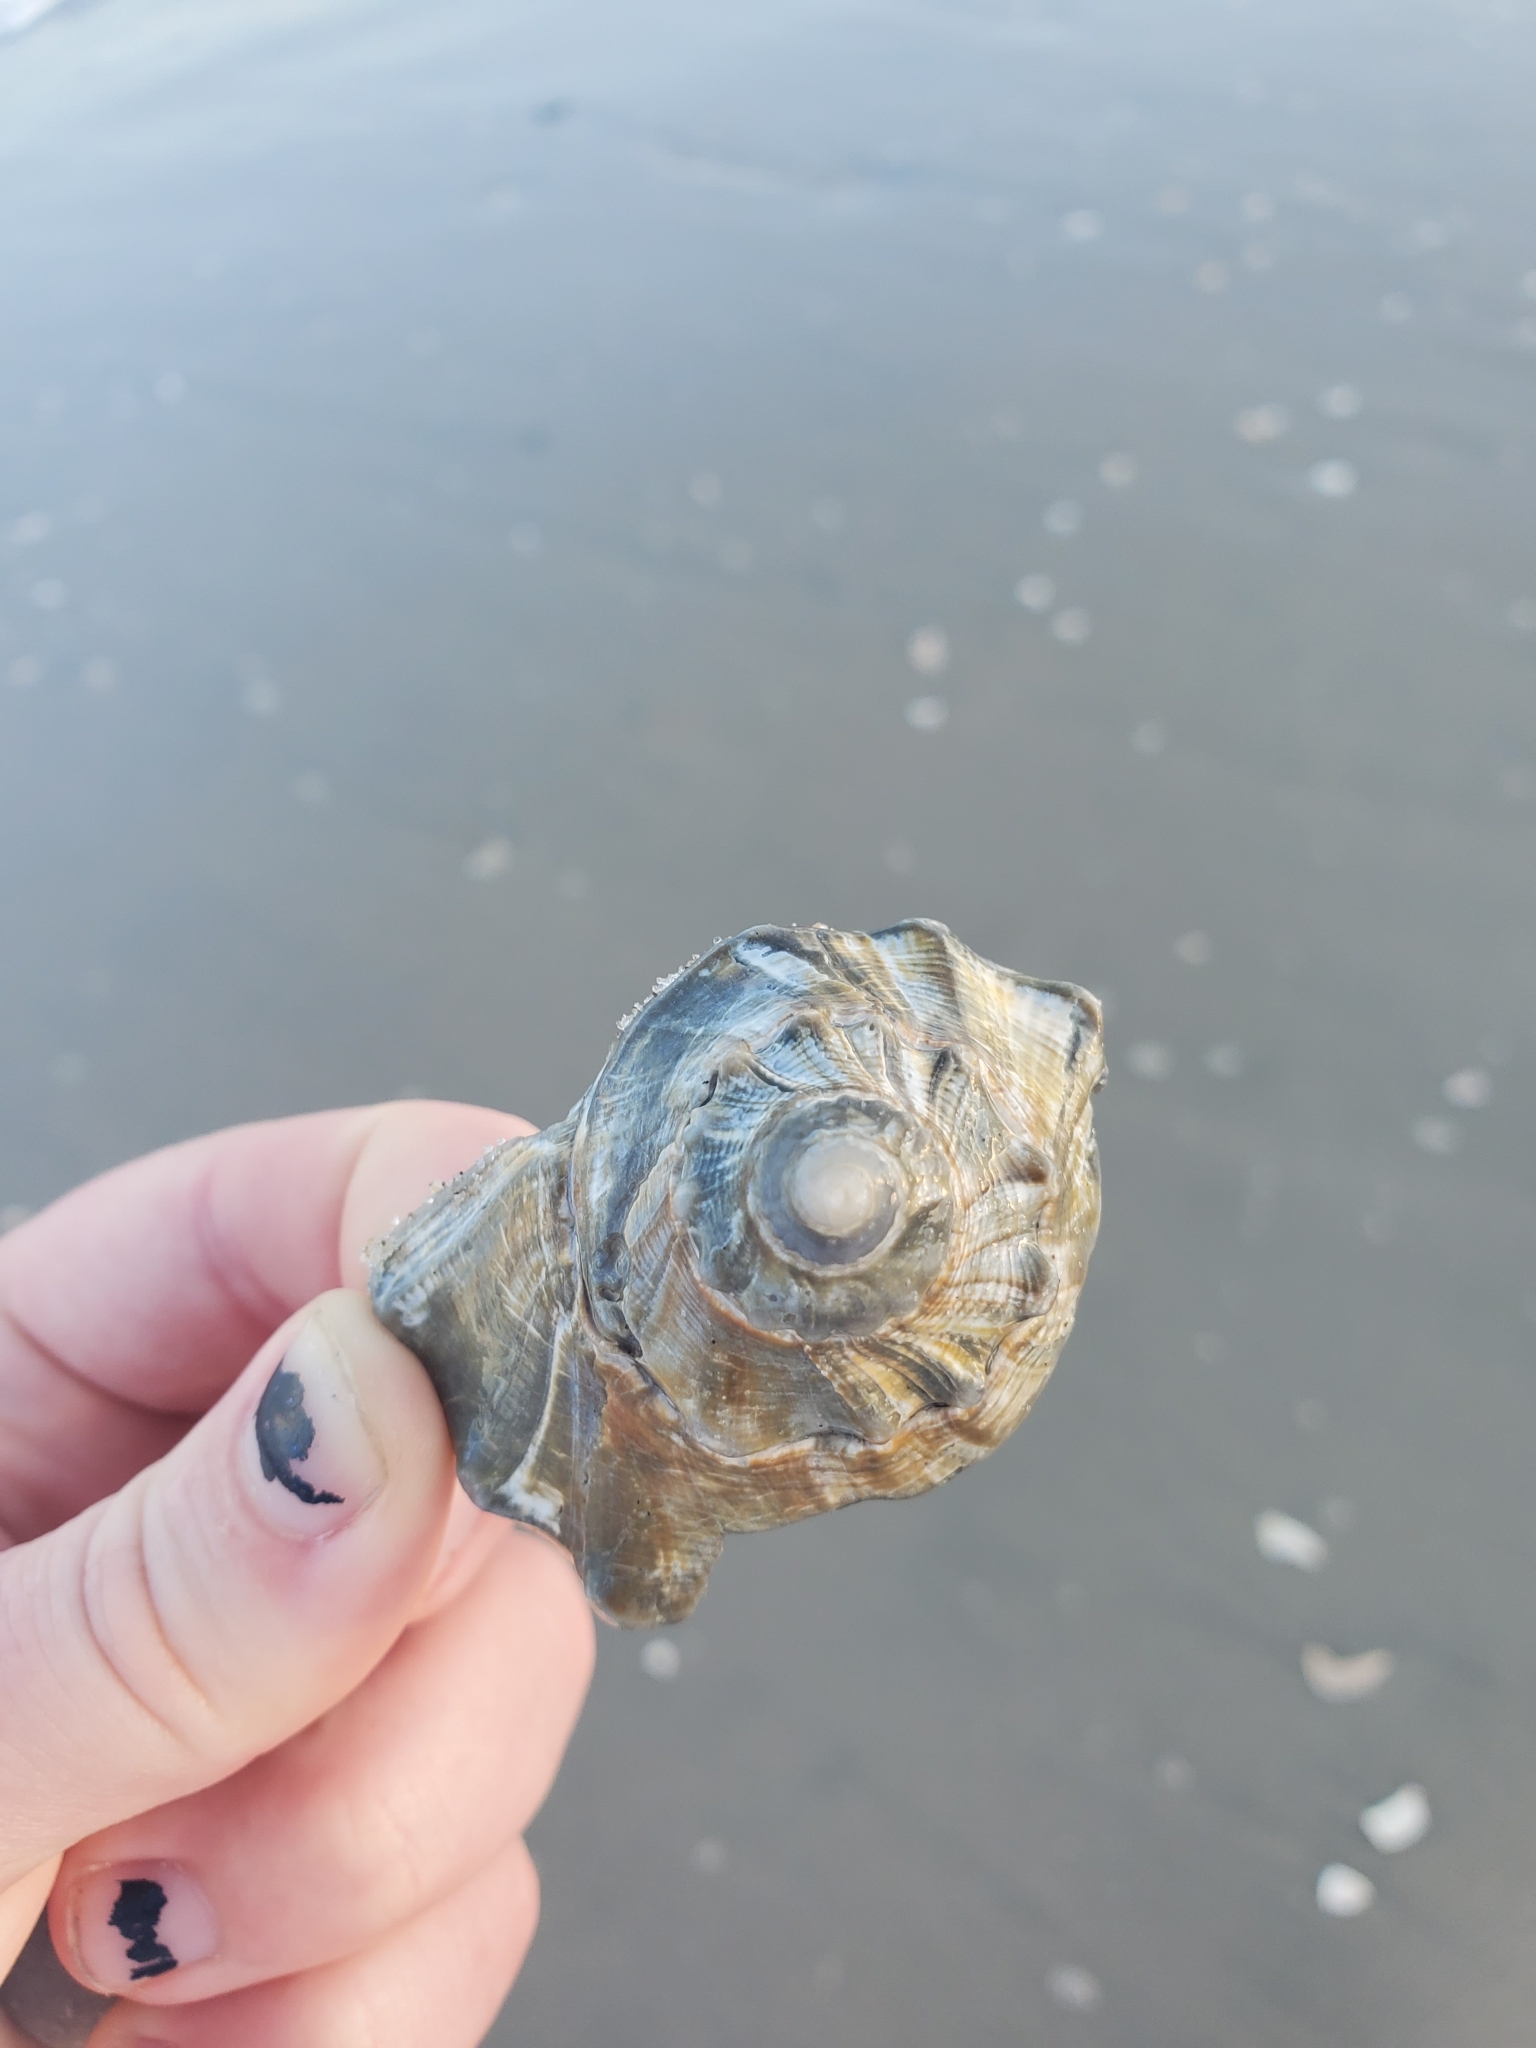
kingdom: Animalia
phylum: Mollusca
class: Gastropoda
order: Neogastropoda
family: Busyconidae
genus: Busycon
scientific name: Busycon carica
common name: Knobbed whelk
